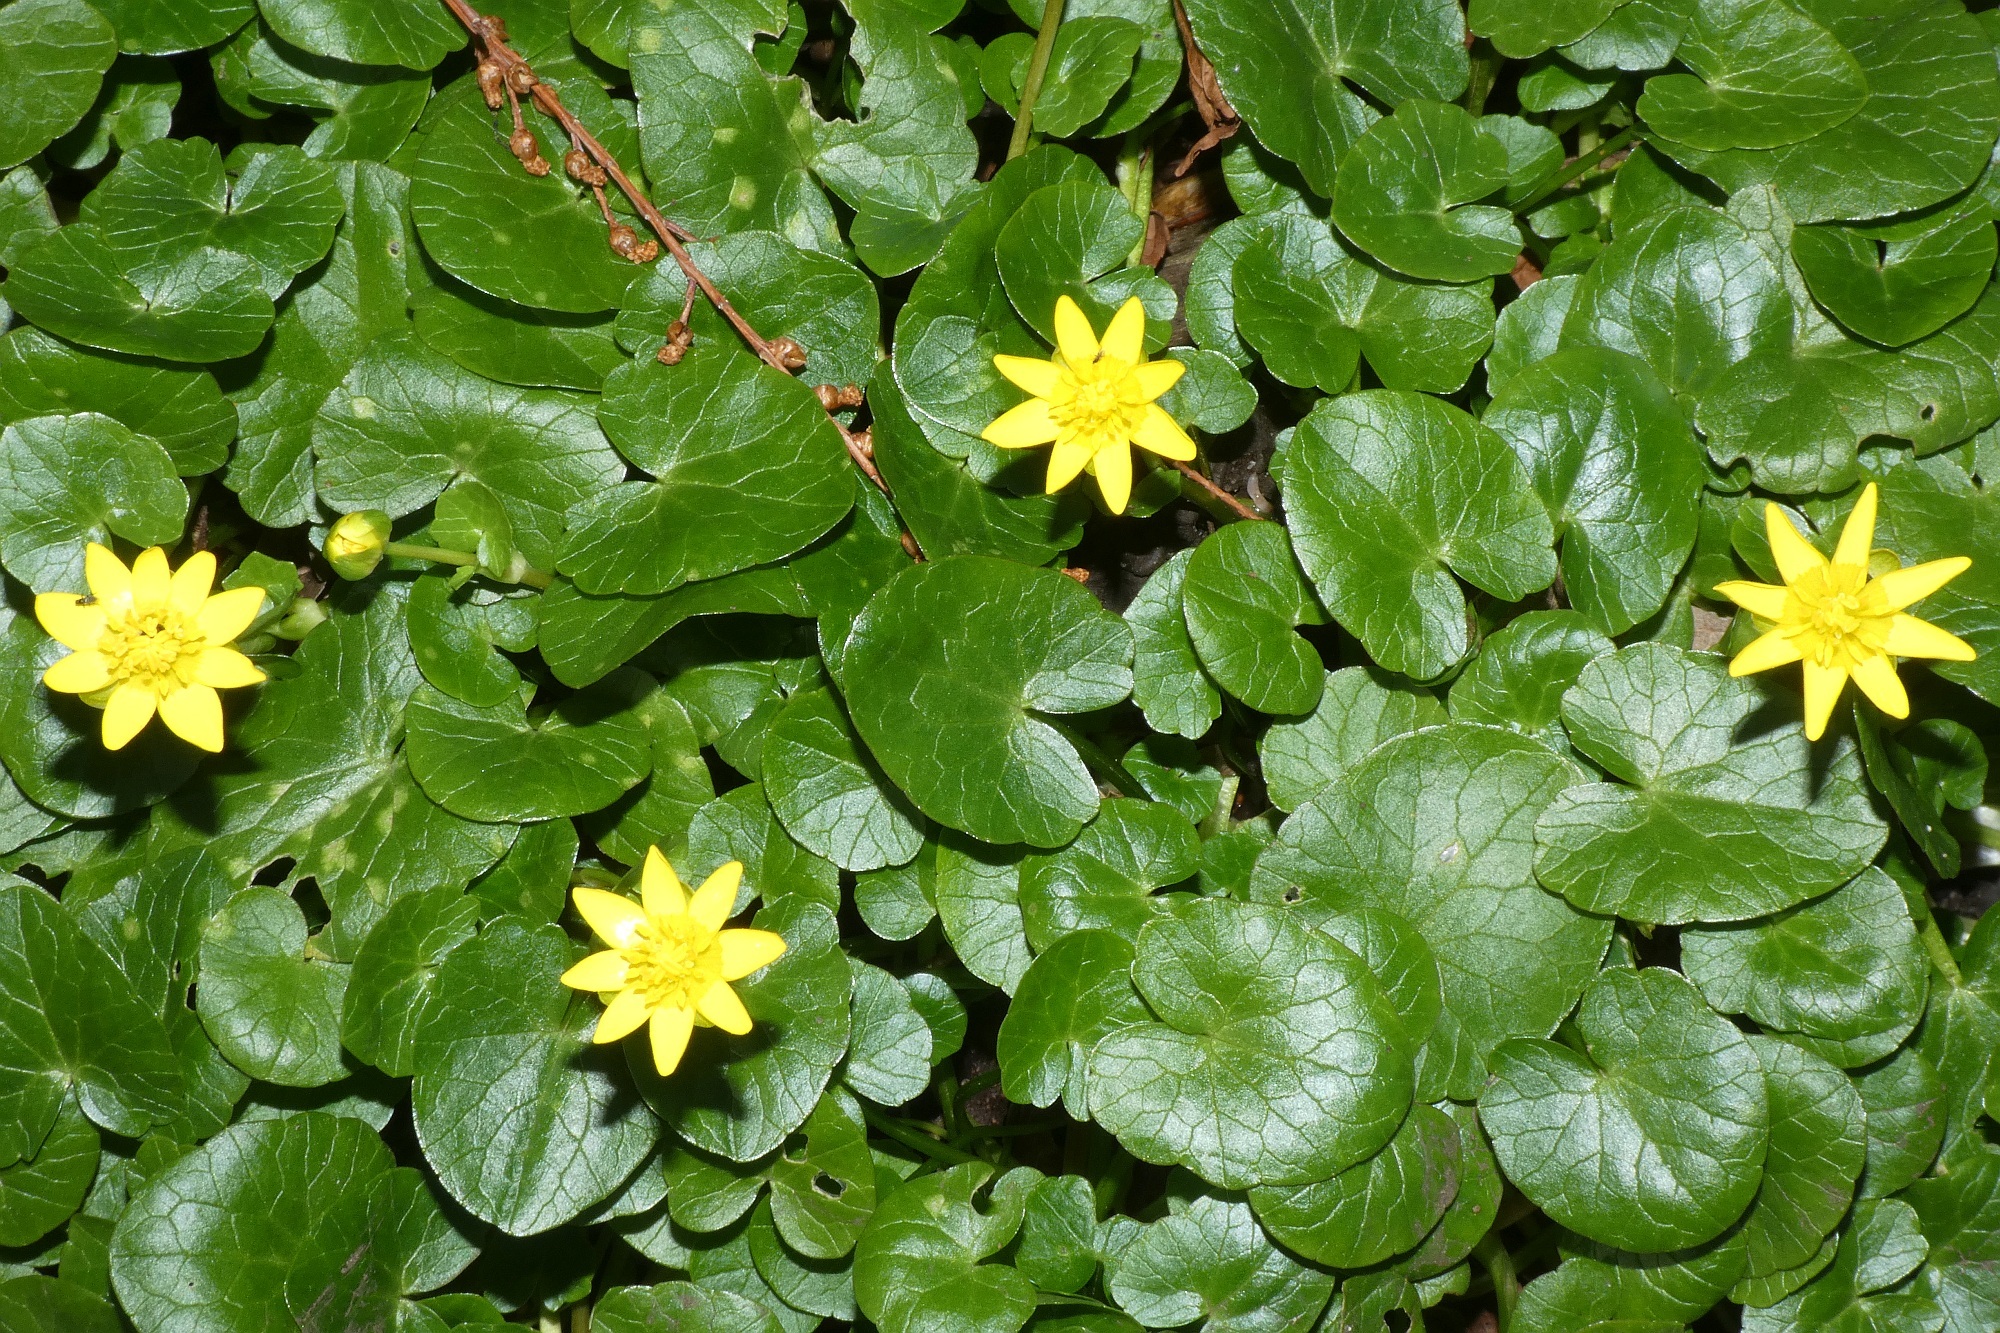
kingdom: Plantae
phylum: Tracheophyta
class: Magnoliopsida
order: Ranunculales
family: Ranunculaceae
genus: Ficaria
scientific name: Ficaria verna
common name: Lesser celandine
